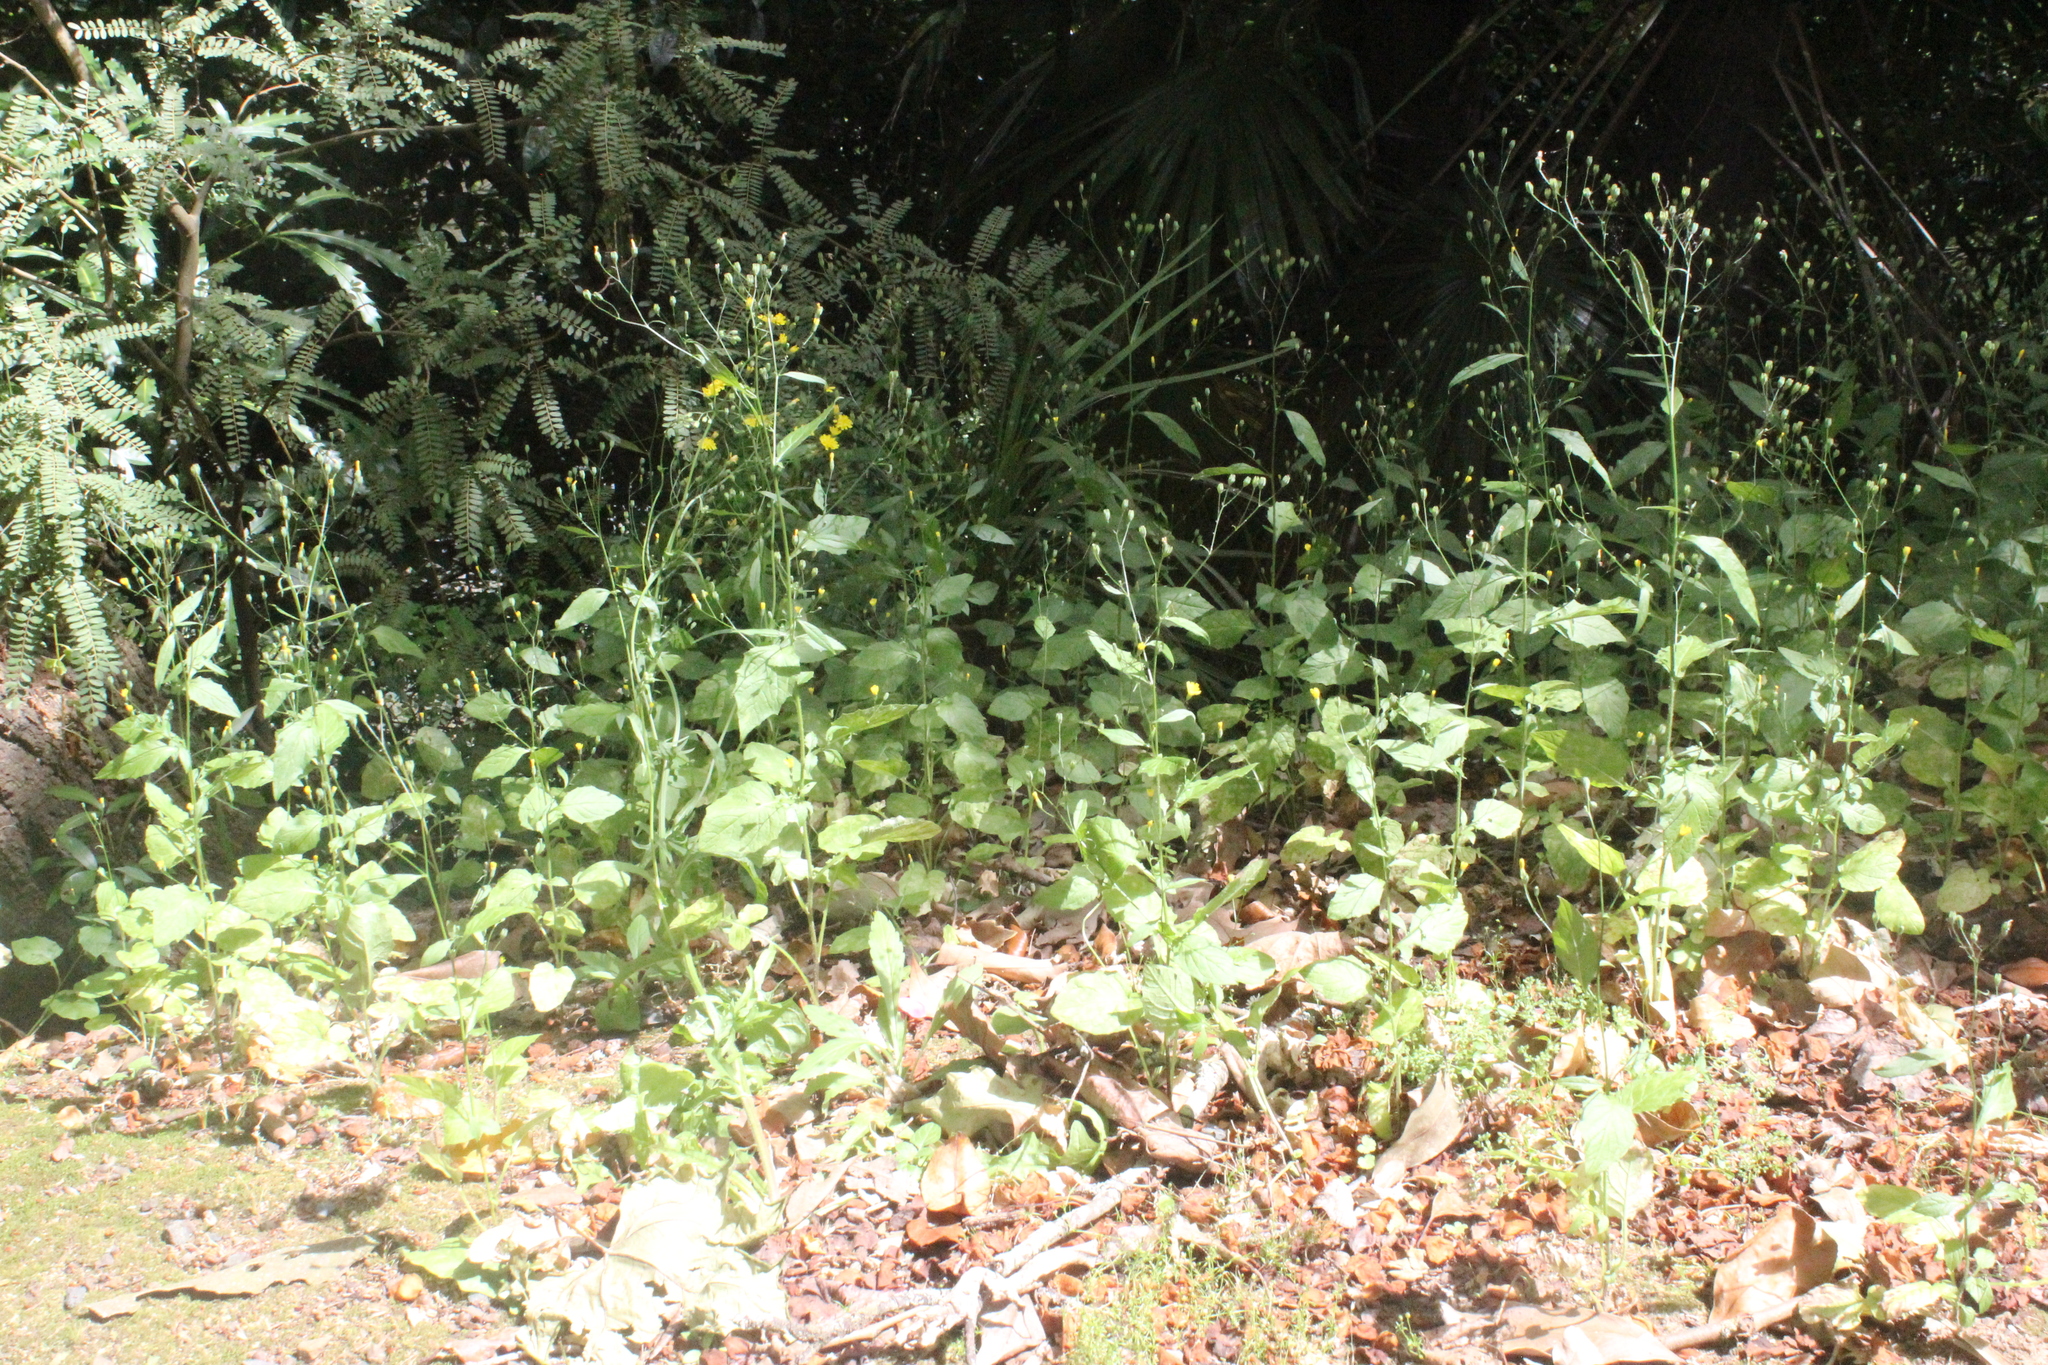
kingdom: Plantae
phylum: Tracheophyta
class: Magnoliopsida
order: Asterales
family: Asteraceae
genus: Lapsana
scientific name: Lapsana communis
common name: Nipplewort
